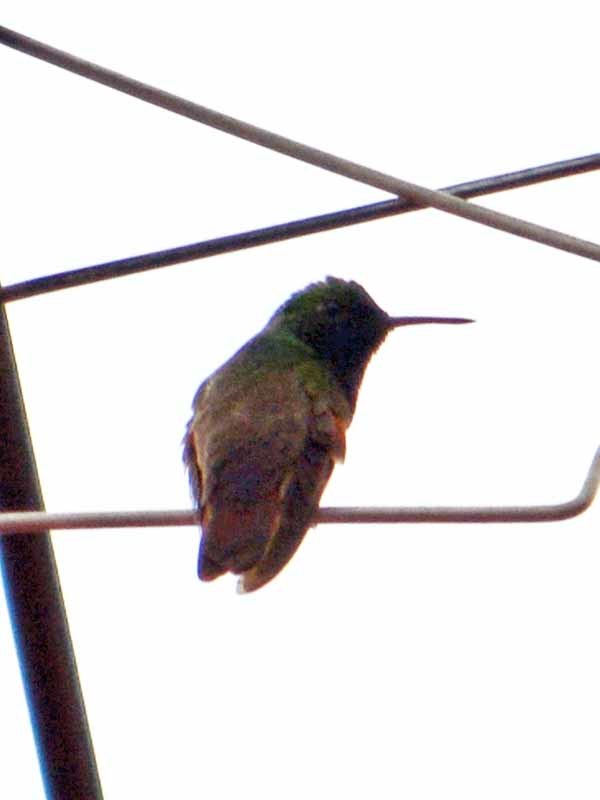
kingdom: Animalia
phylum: Chordata
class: Aves
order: Apodiformes
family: Trochilidae
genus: Saucerottia
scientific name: Saucerottia beryllina
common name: Berylline hummingbird
